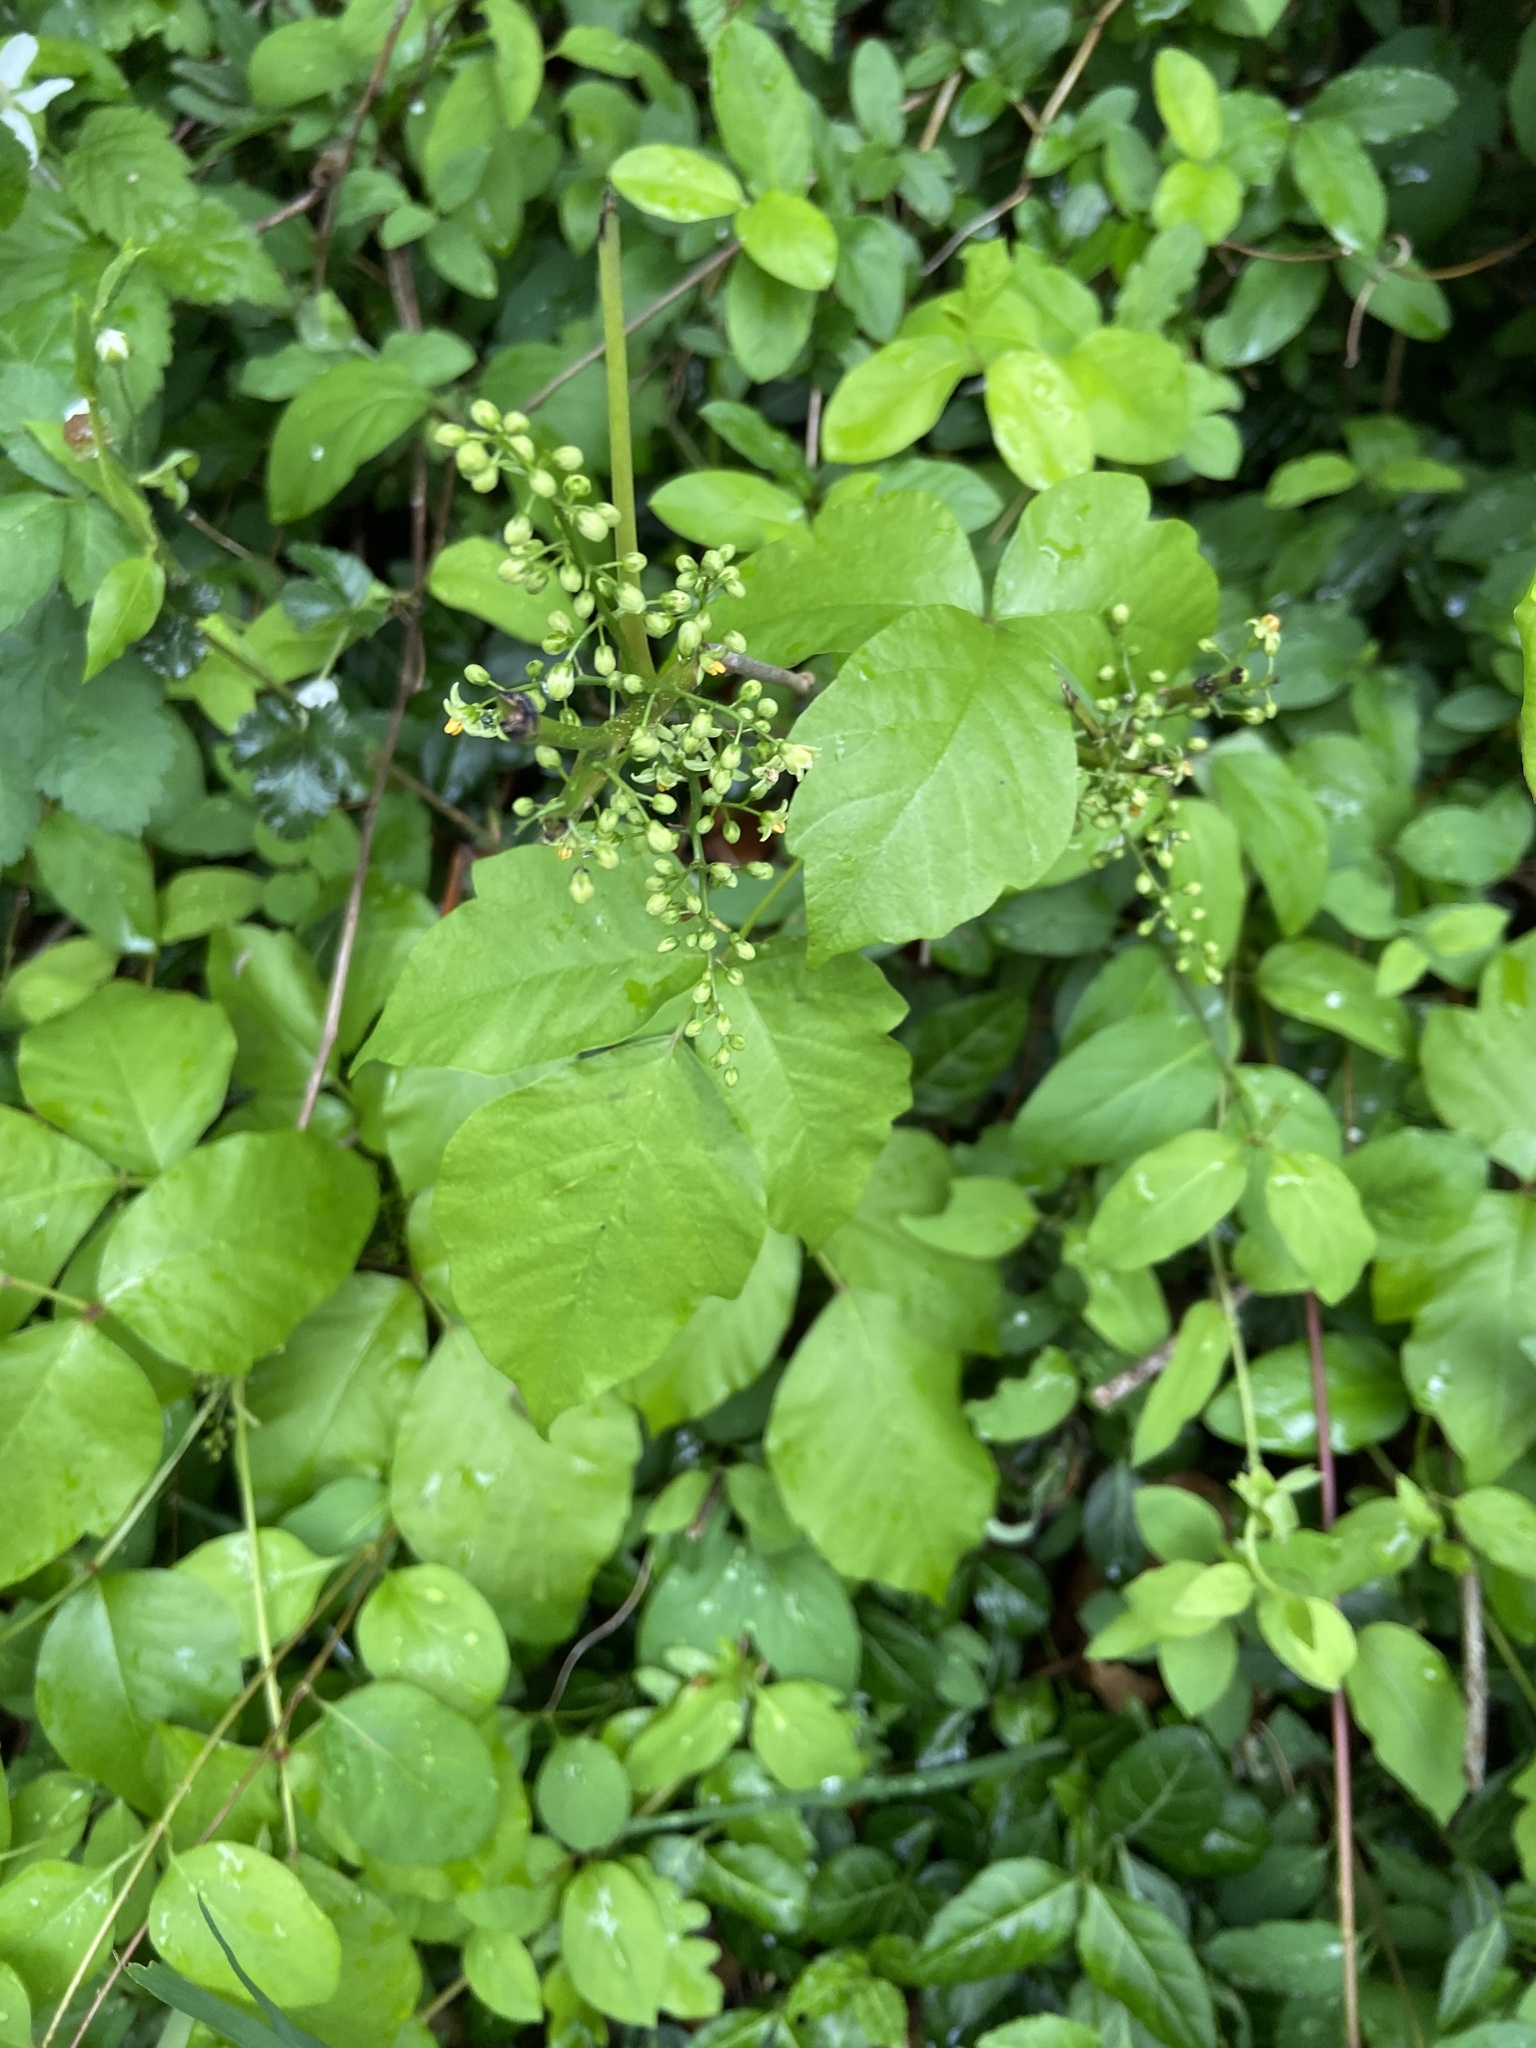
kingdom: Plantae
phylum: Tracheophyta
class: Magnoliopsida
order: Sapindales
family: Anacardiaceae
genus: Toxicodendron
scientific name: Toxicodendron radicans
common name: Poison ivy
